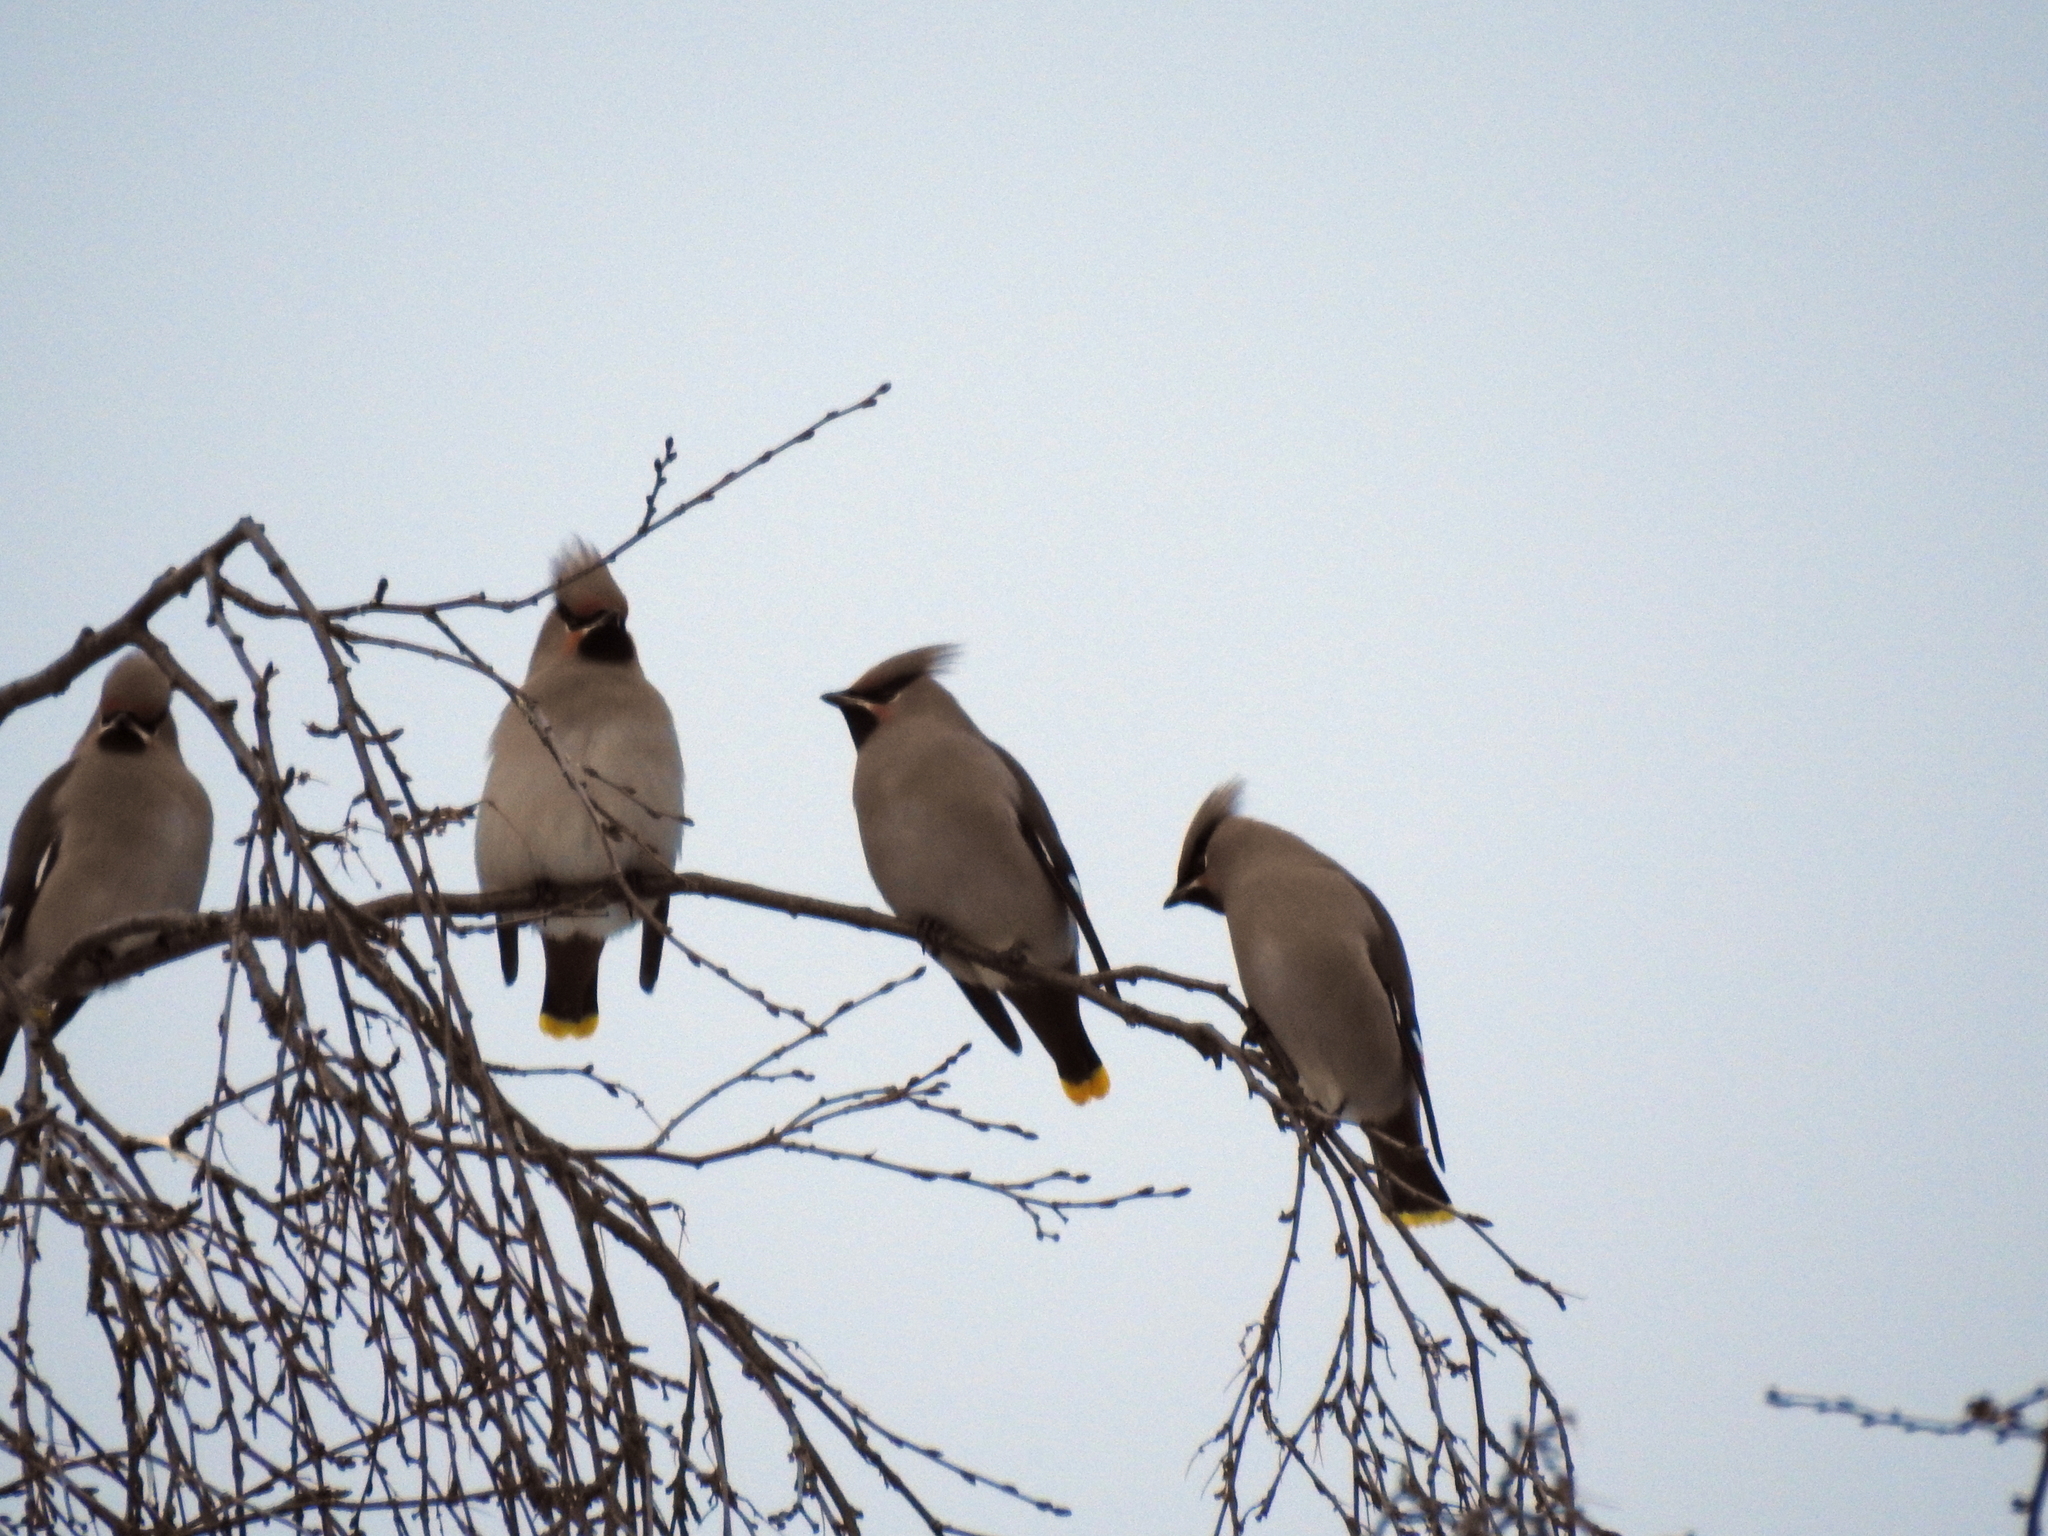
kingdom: Animalia
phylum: Chordata
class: Aves
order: Passeriformes
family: Bombycillidae
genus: Bombycilla
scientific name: Bombycilla garrulus
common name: Bohemian waxwing
